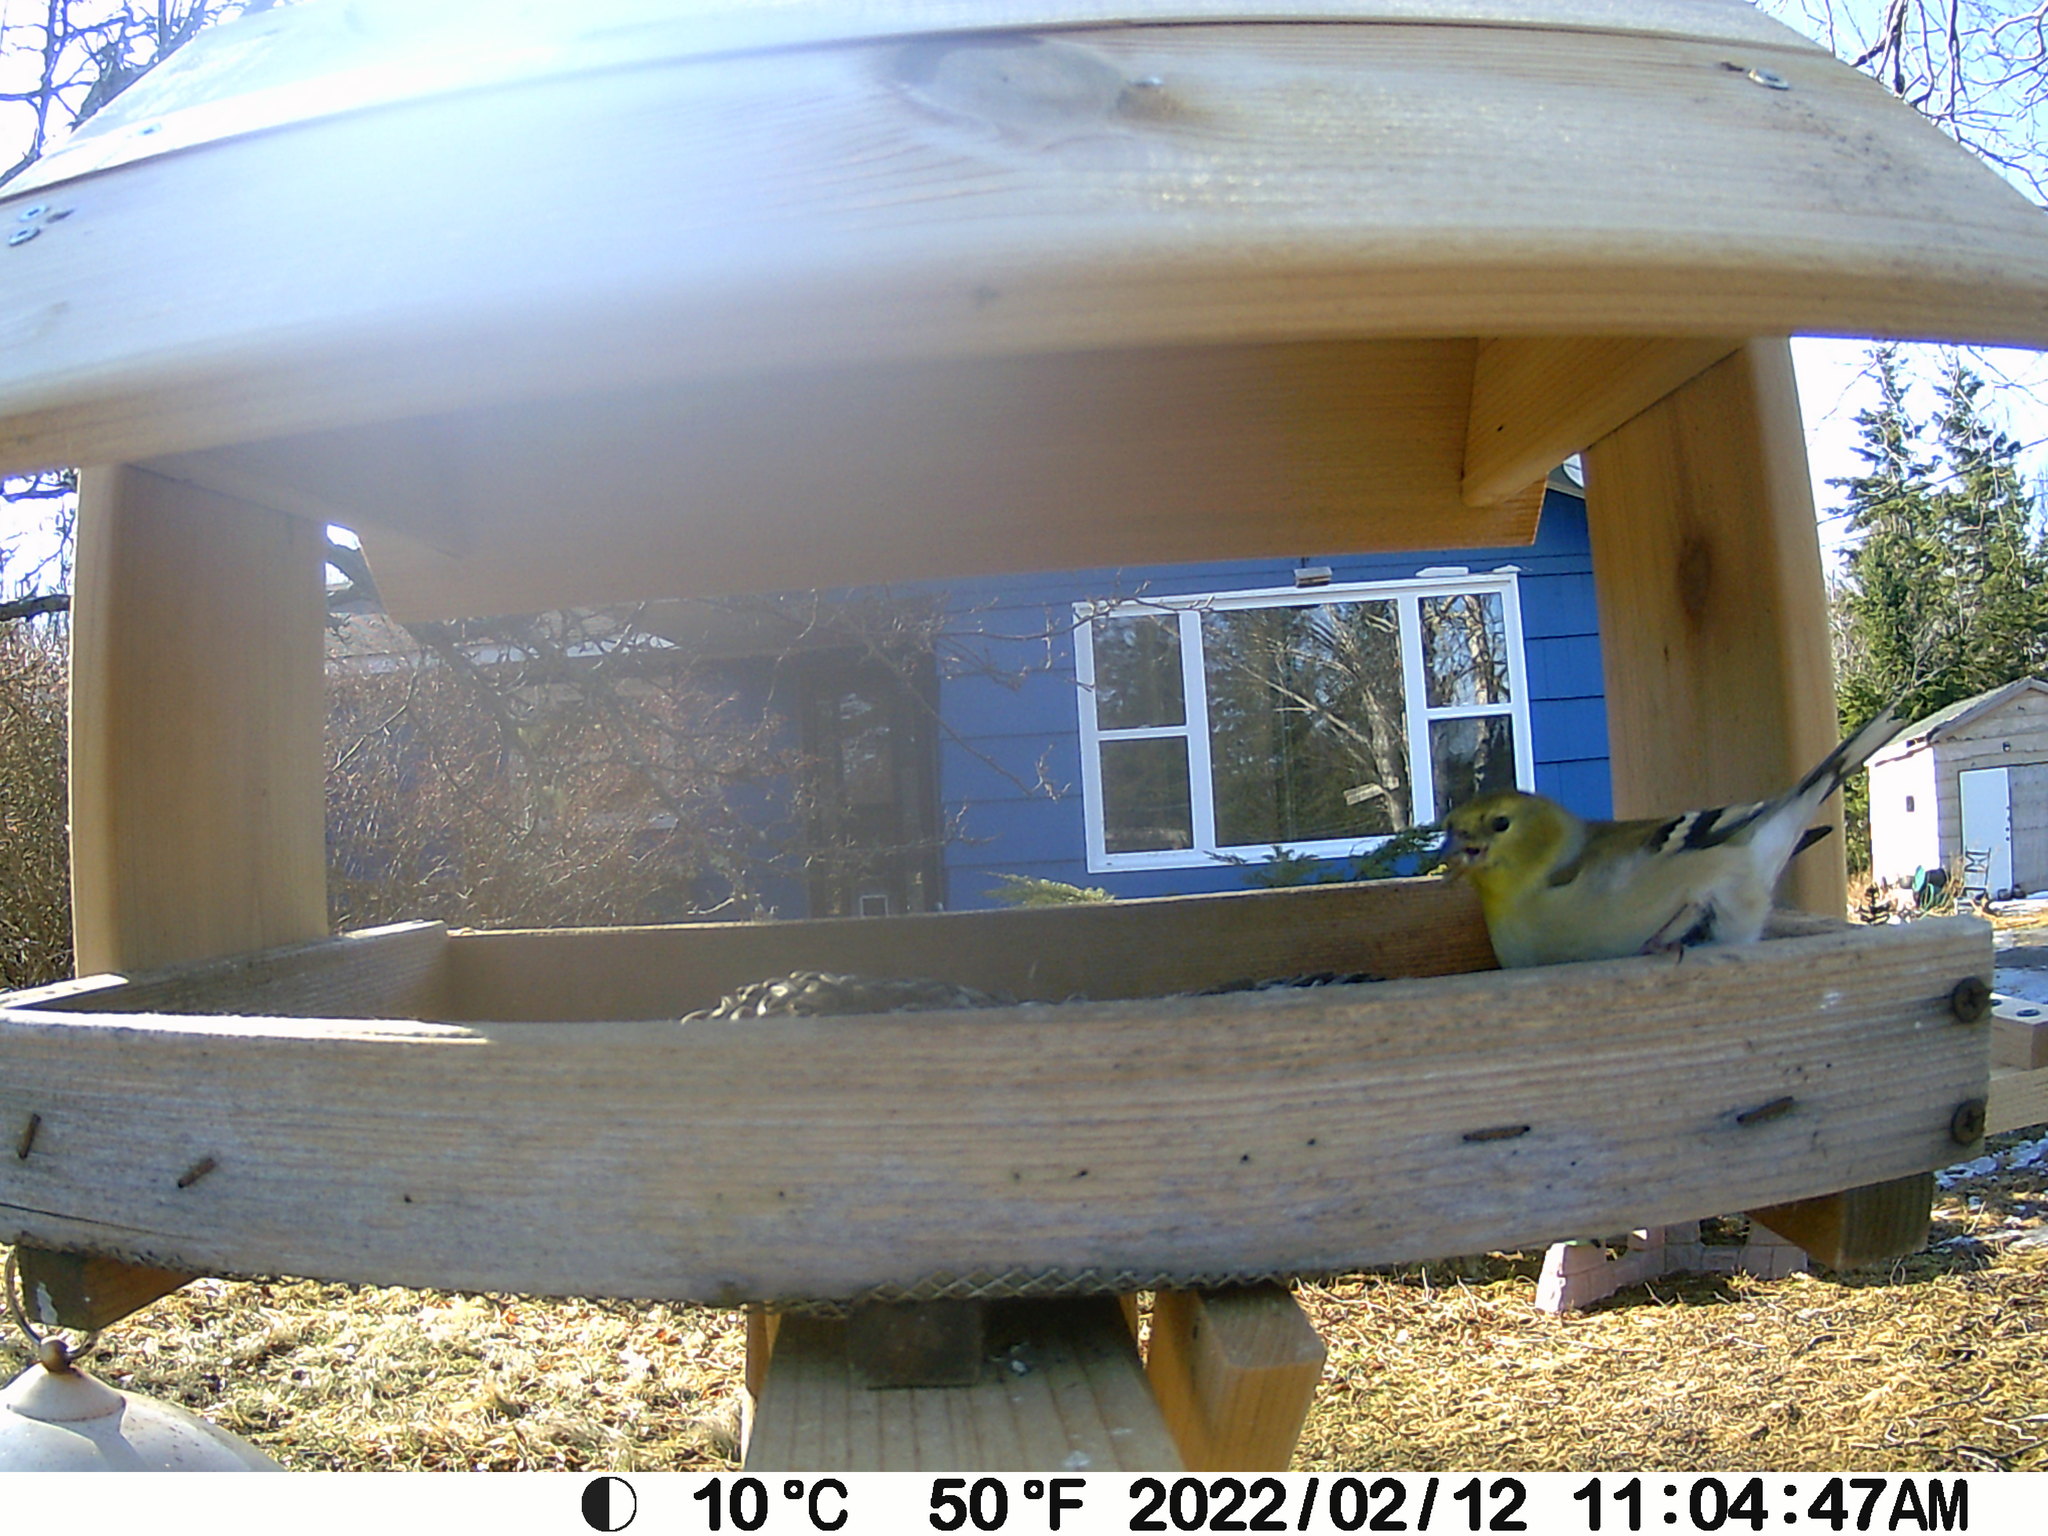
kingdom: Animalia
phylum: Chordata
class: Aves
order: Passeriformes
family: Fringillidae
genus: Spinus
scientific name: Spinus tristis
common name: American goldfinch
